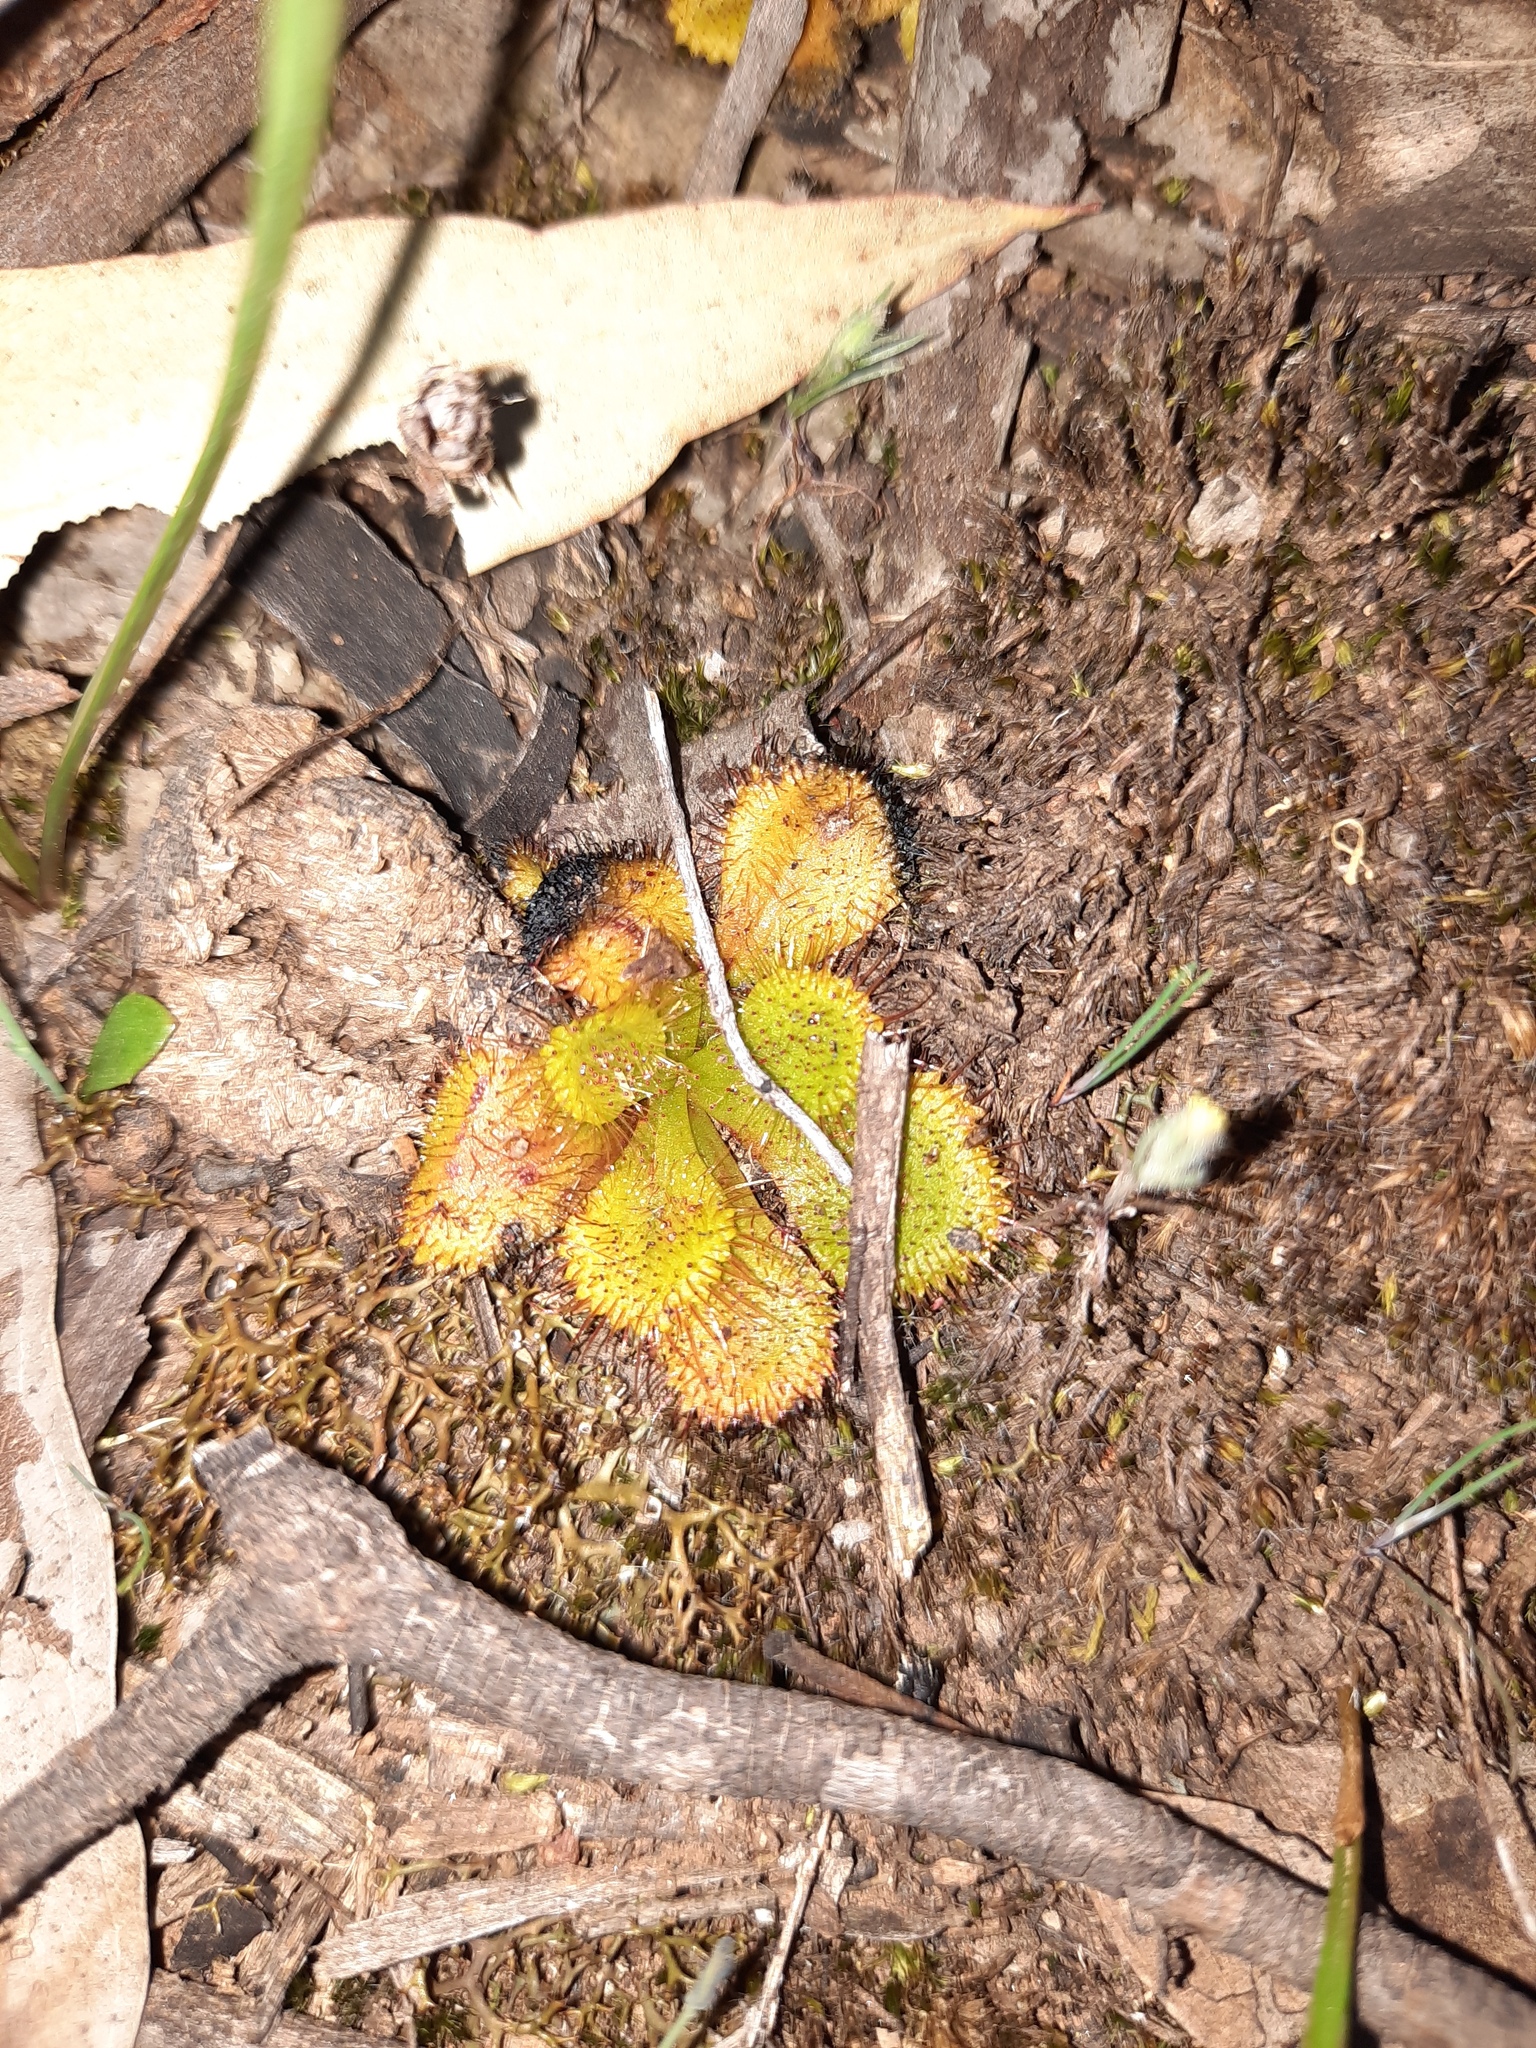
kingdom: Plantae
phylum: Tracheophyta
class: Magnoliopsida
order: Caryophyllales
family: Droseraceae
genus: Drosera
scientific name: Drosera aberrans
